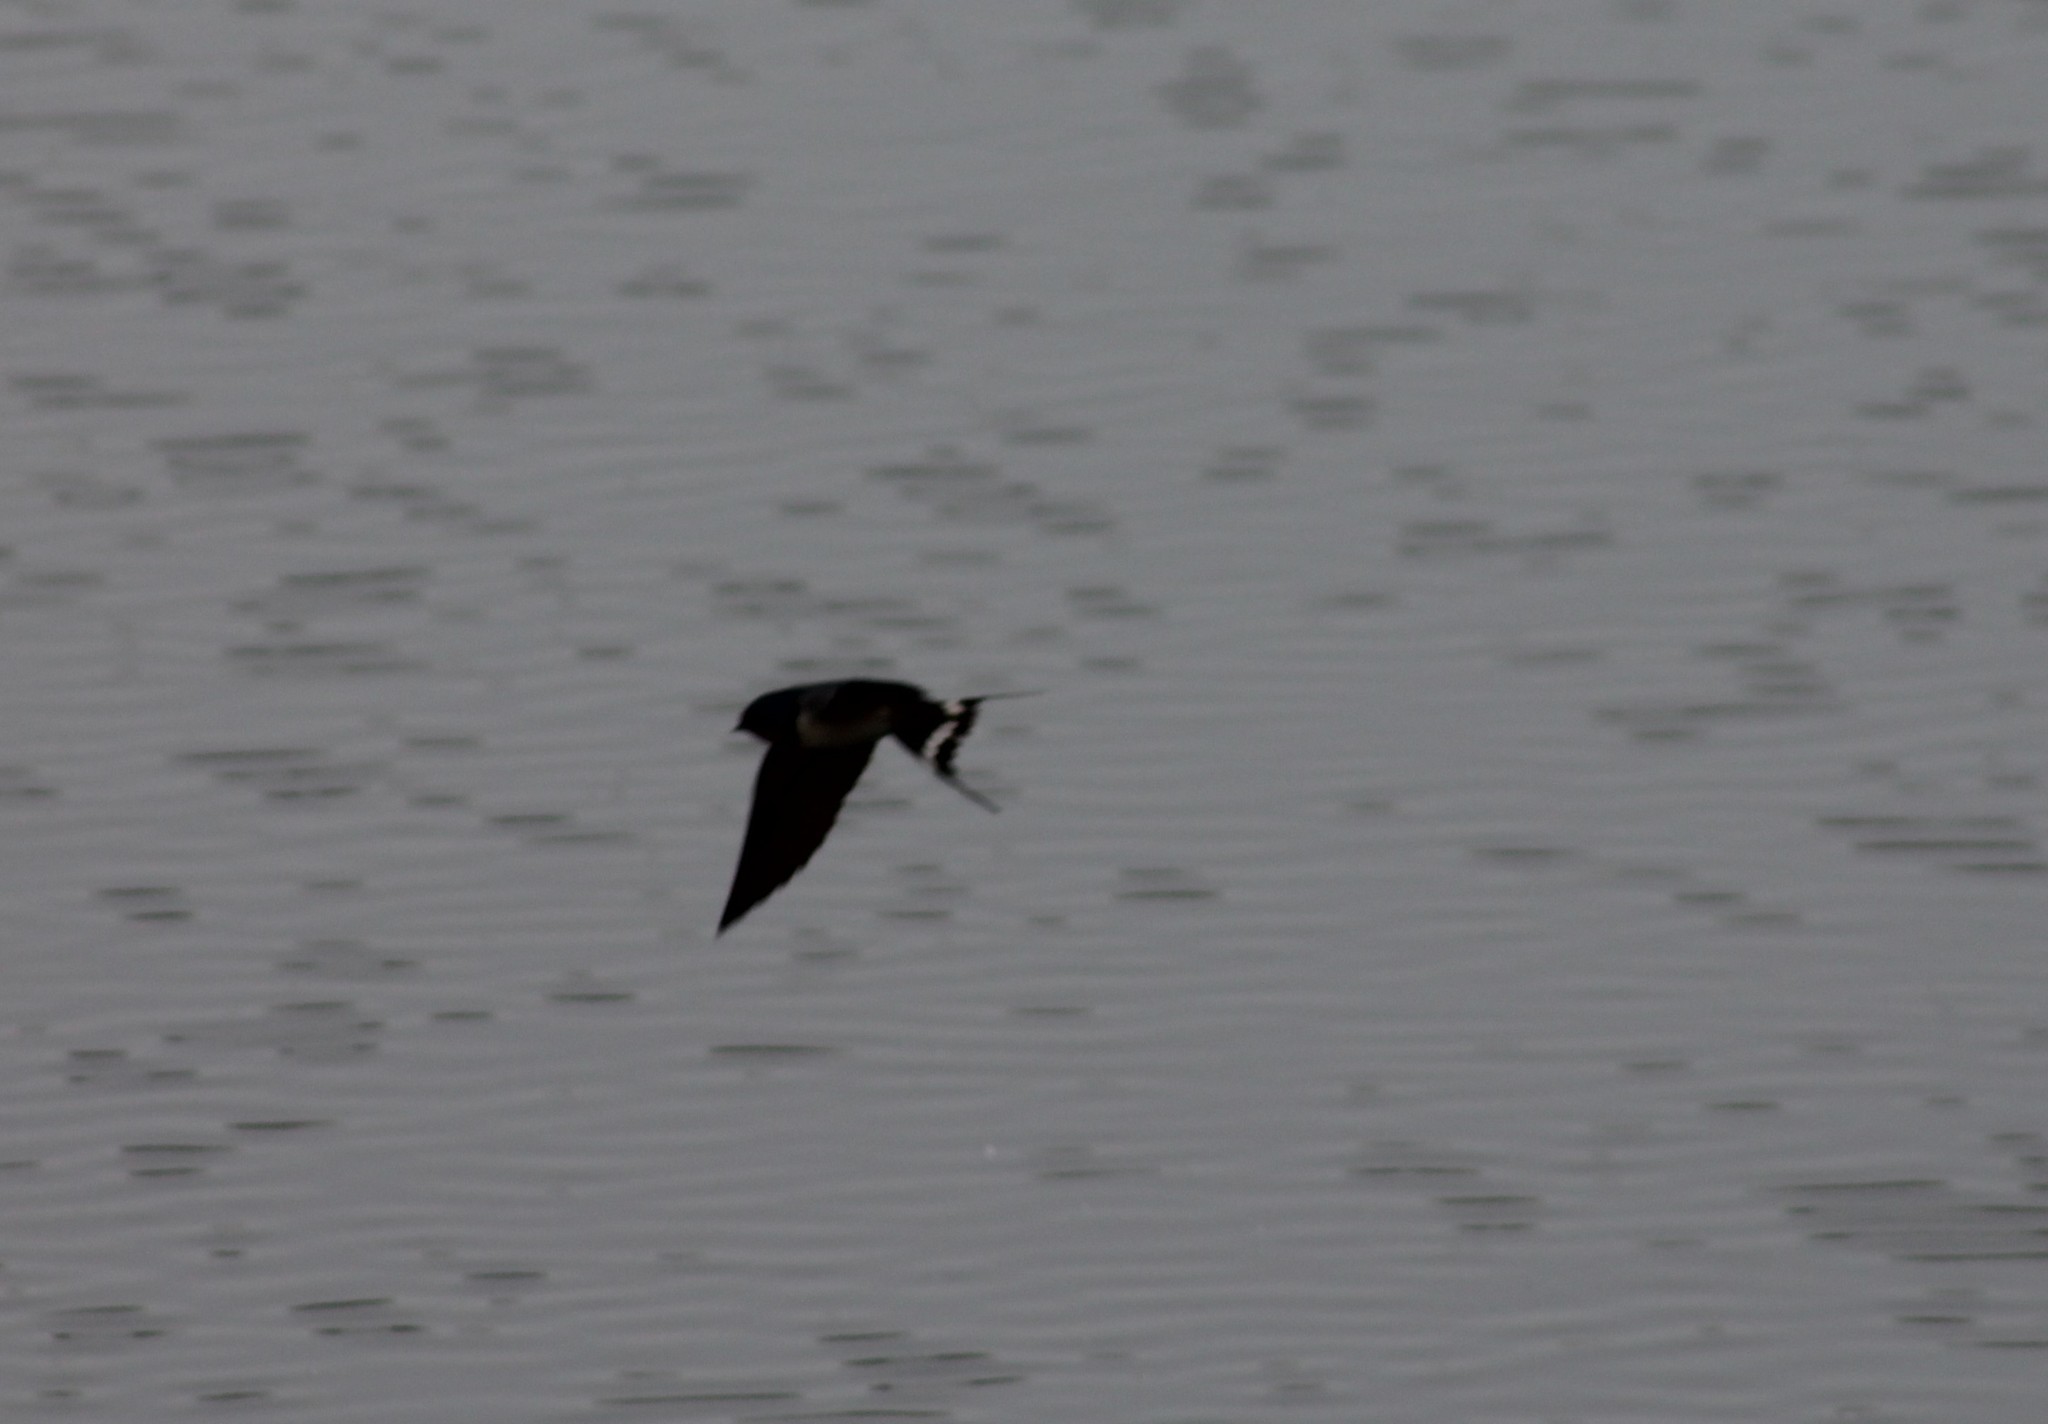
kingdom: Animalia
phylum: Chordata
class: Aves
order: Passeriformes
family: Hirundinidae
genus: Hirundo
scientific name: Hirundo rustica
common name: Barn swallow
